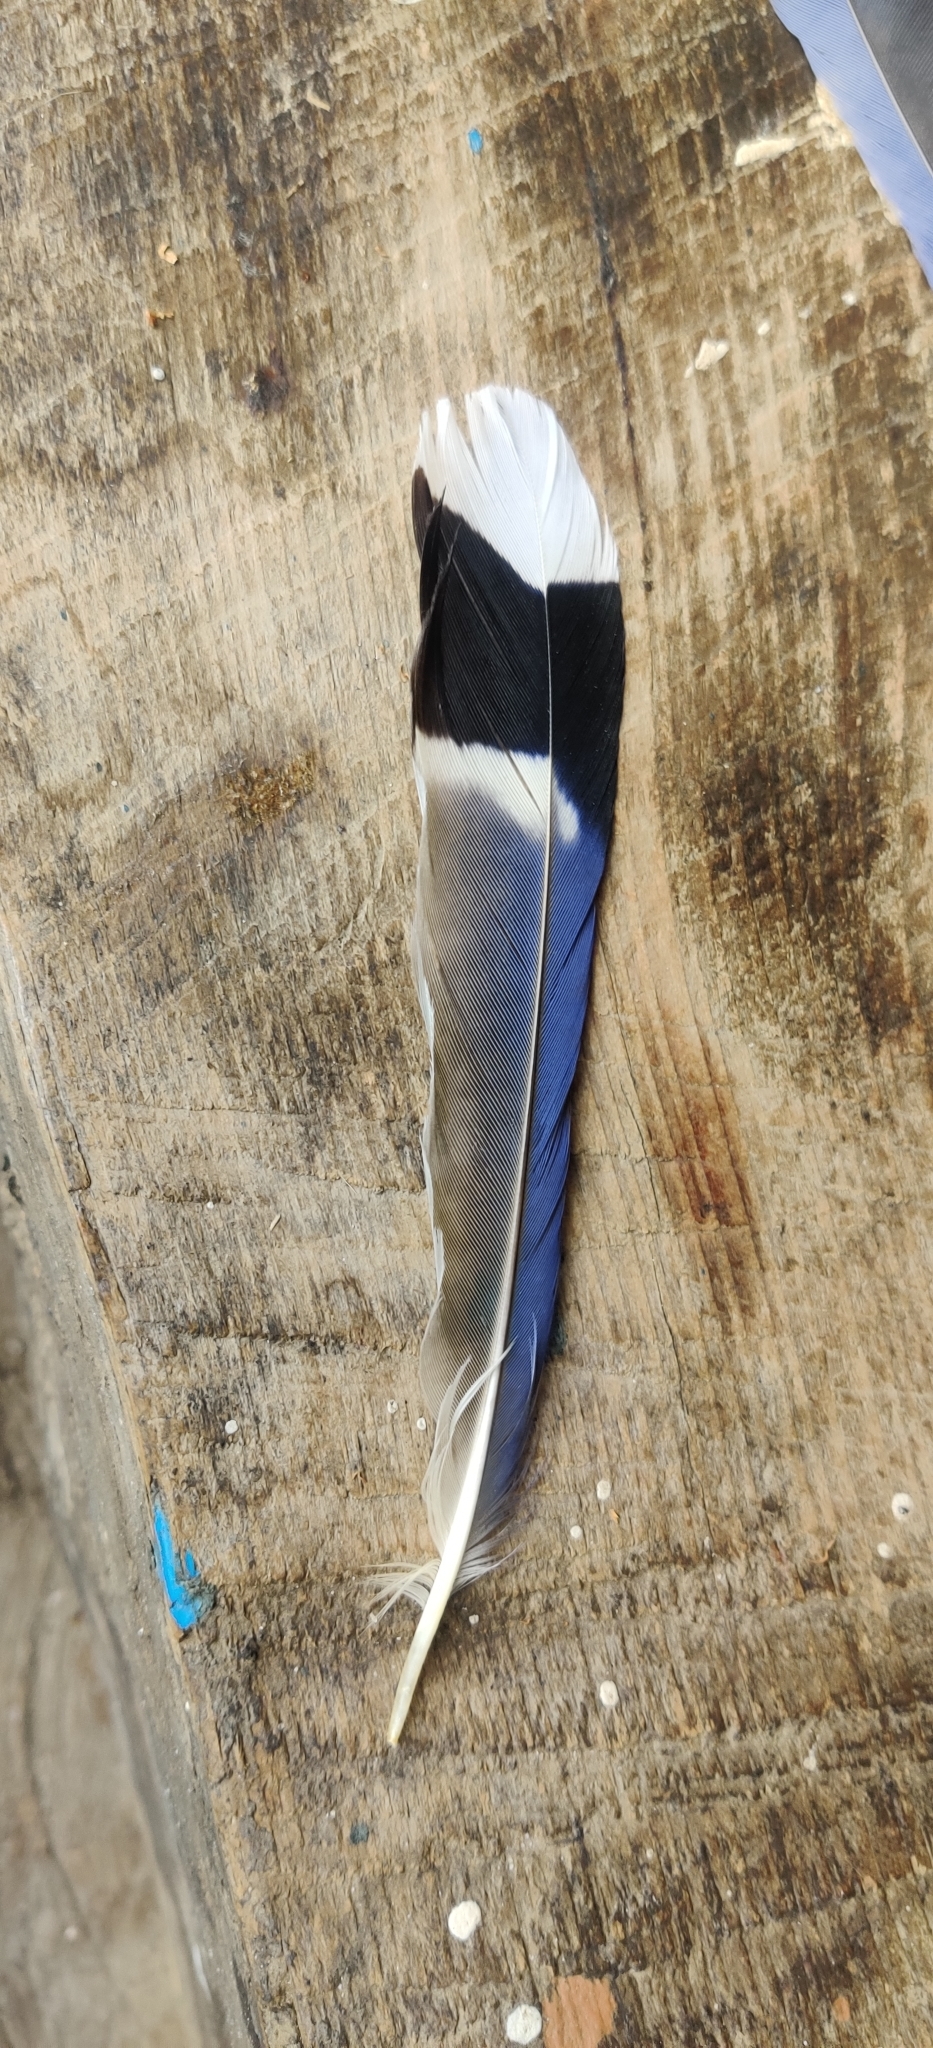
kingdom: Animalia
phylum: Chordata
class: Aves
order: Passeriformes
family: Corvidae
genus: Urocissa
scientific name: Urocissa erythroryncha
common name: Red-billed blue magpie
